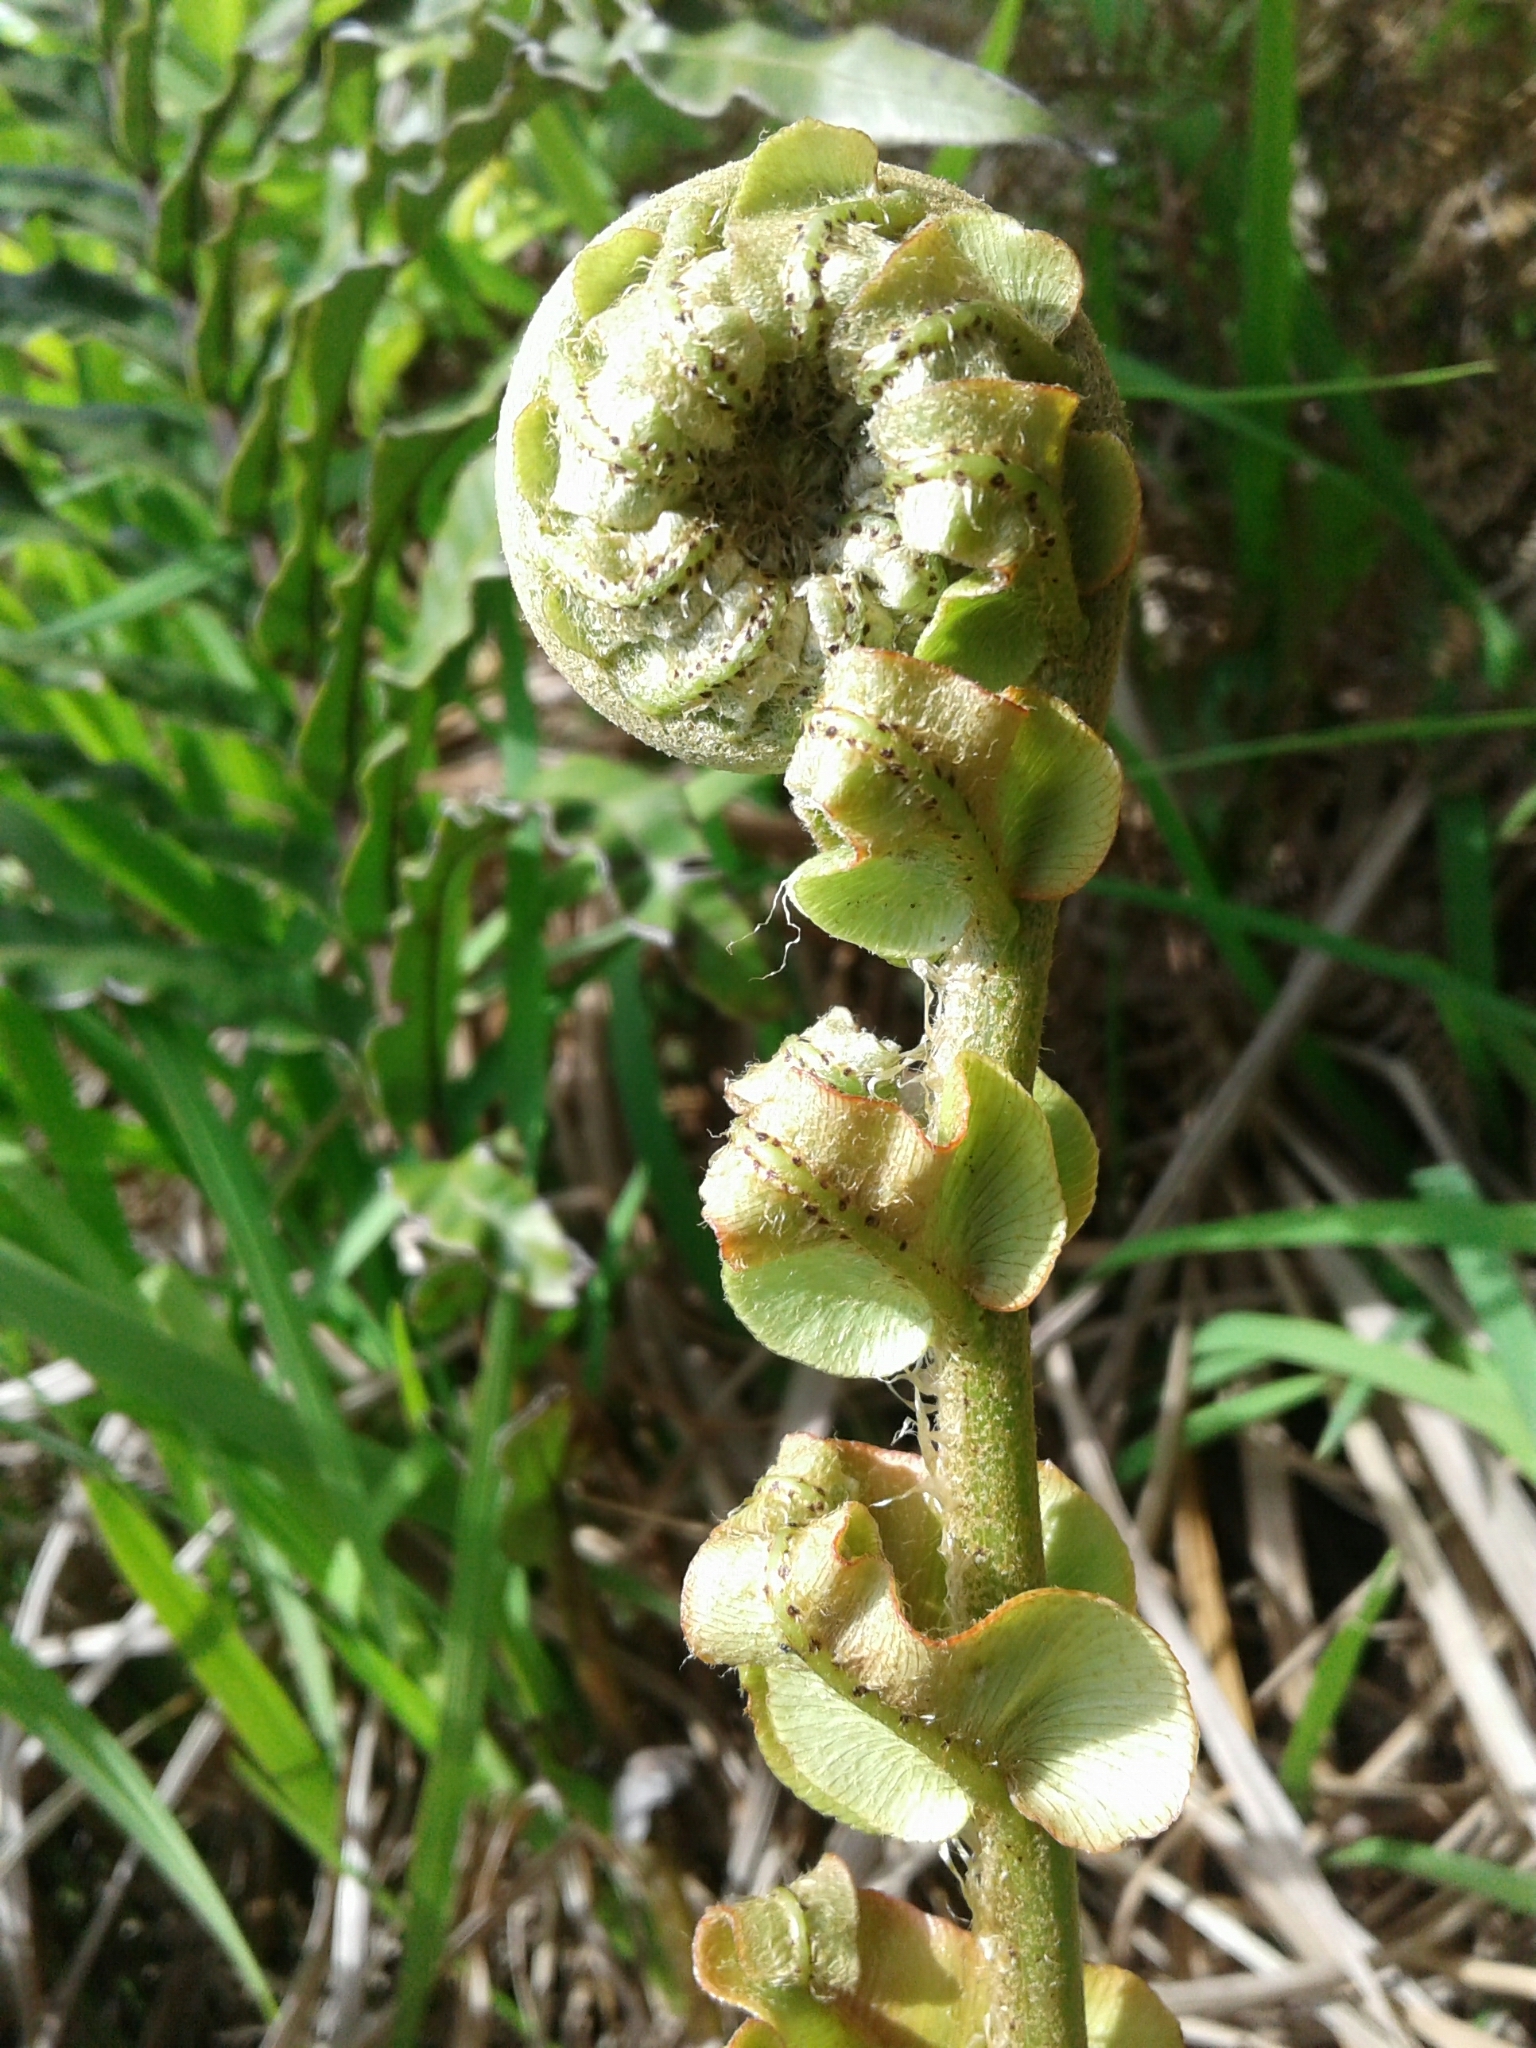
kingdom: Plantae
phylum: Tracheophyta
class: Polypodiopsida
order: Polypodiales
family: Blechnaceae
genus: Parablechnum
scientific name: Parablechnum novae-zelandiae
